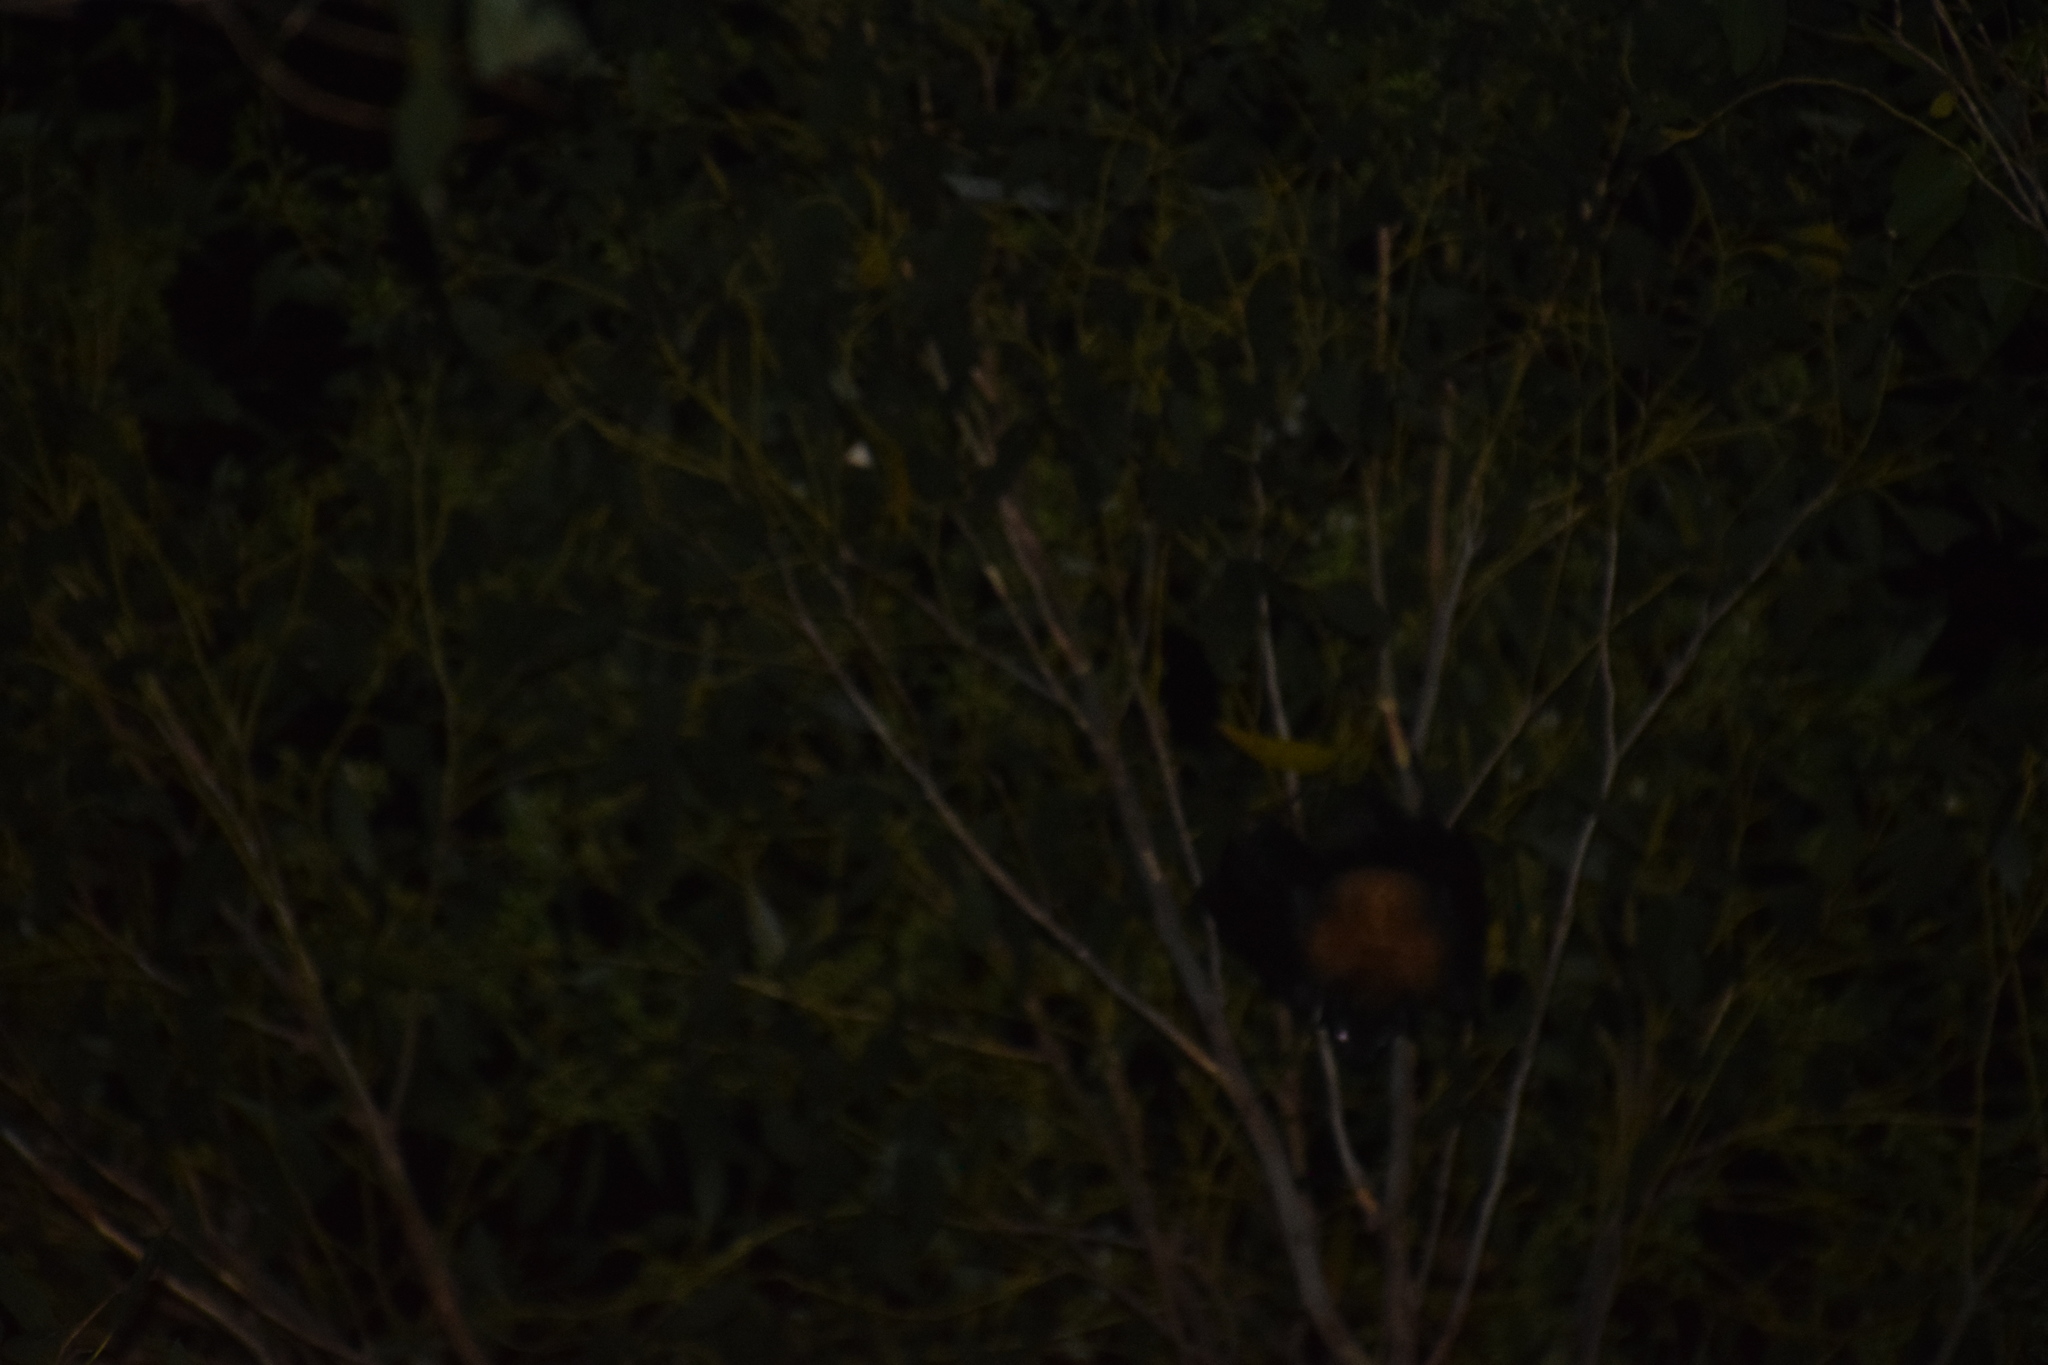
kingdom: Animalia
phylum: Chordata
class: Mammalia
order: Chiroptera
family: Pteropodidae
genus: Pteropus
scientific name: Pteropus poliocephalus
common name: Gray-headed flying fox
